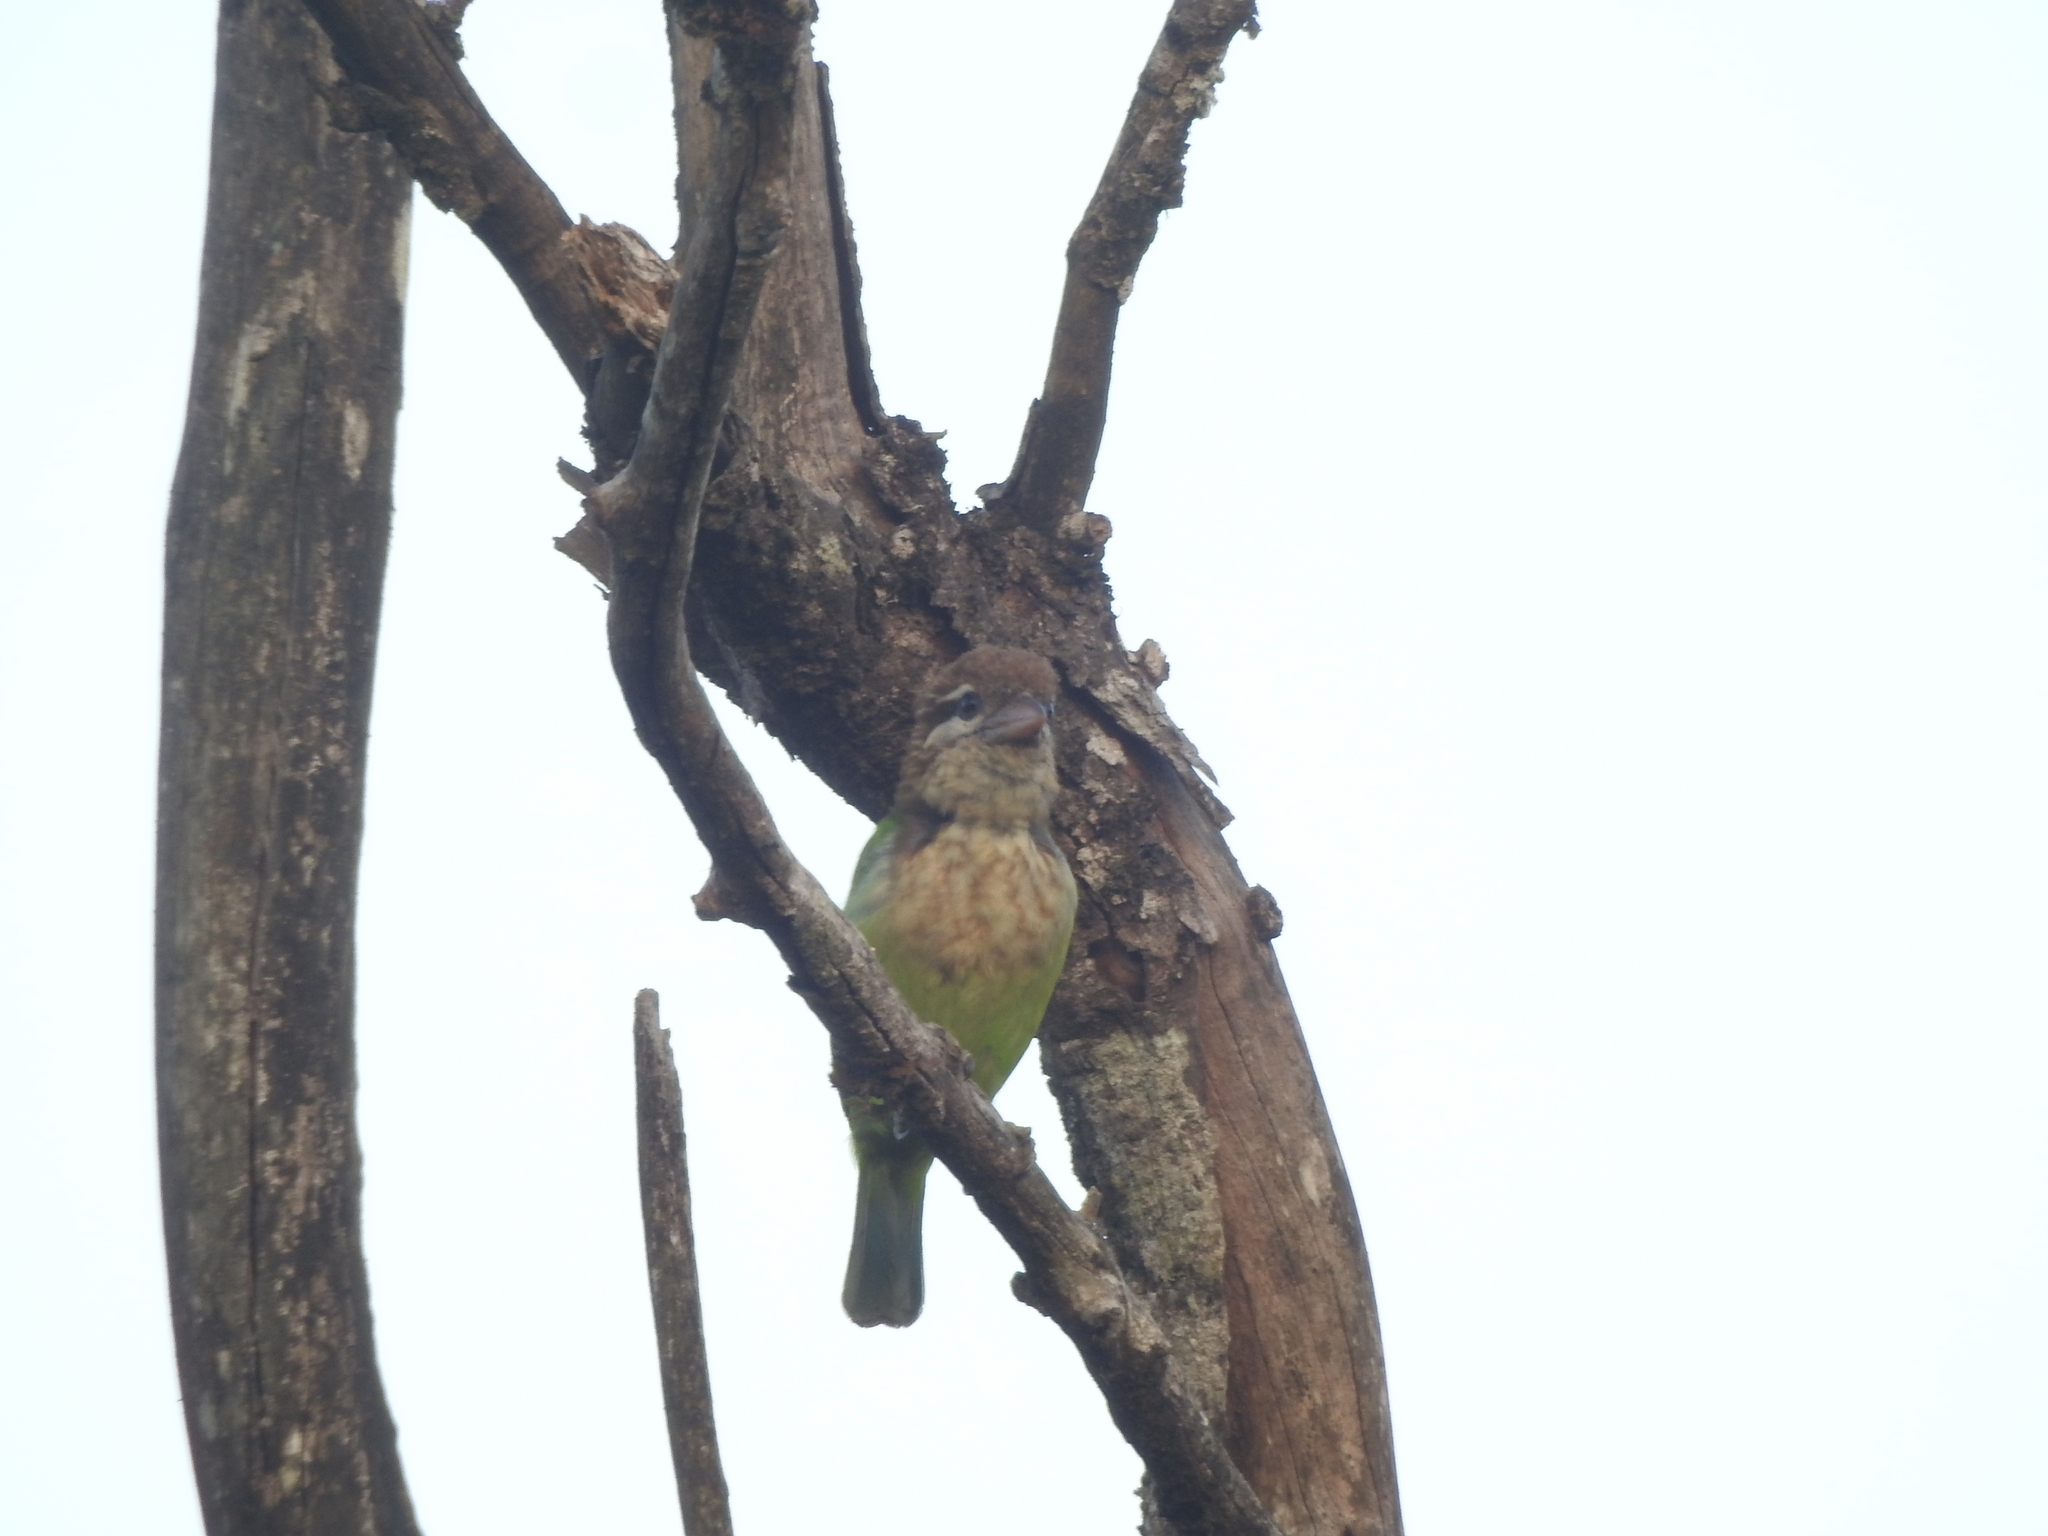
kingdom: Animalia
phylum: Chordata
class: Aves
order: Piciformes
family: Megalaimidae
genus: Psilopogon
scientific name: Psilopogon viridis
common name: White-cheeked barbet
